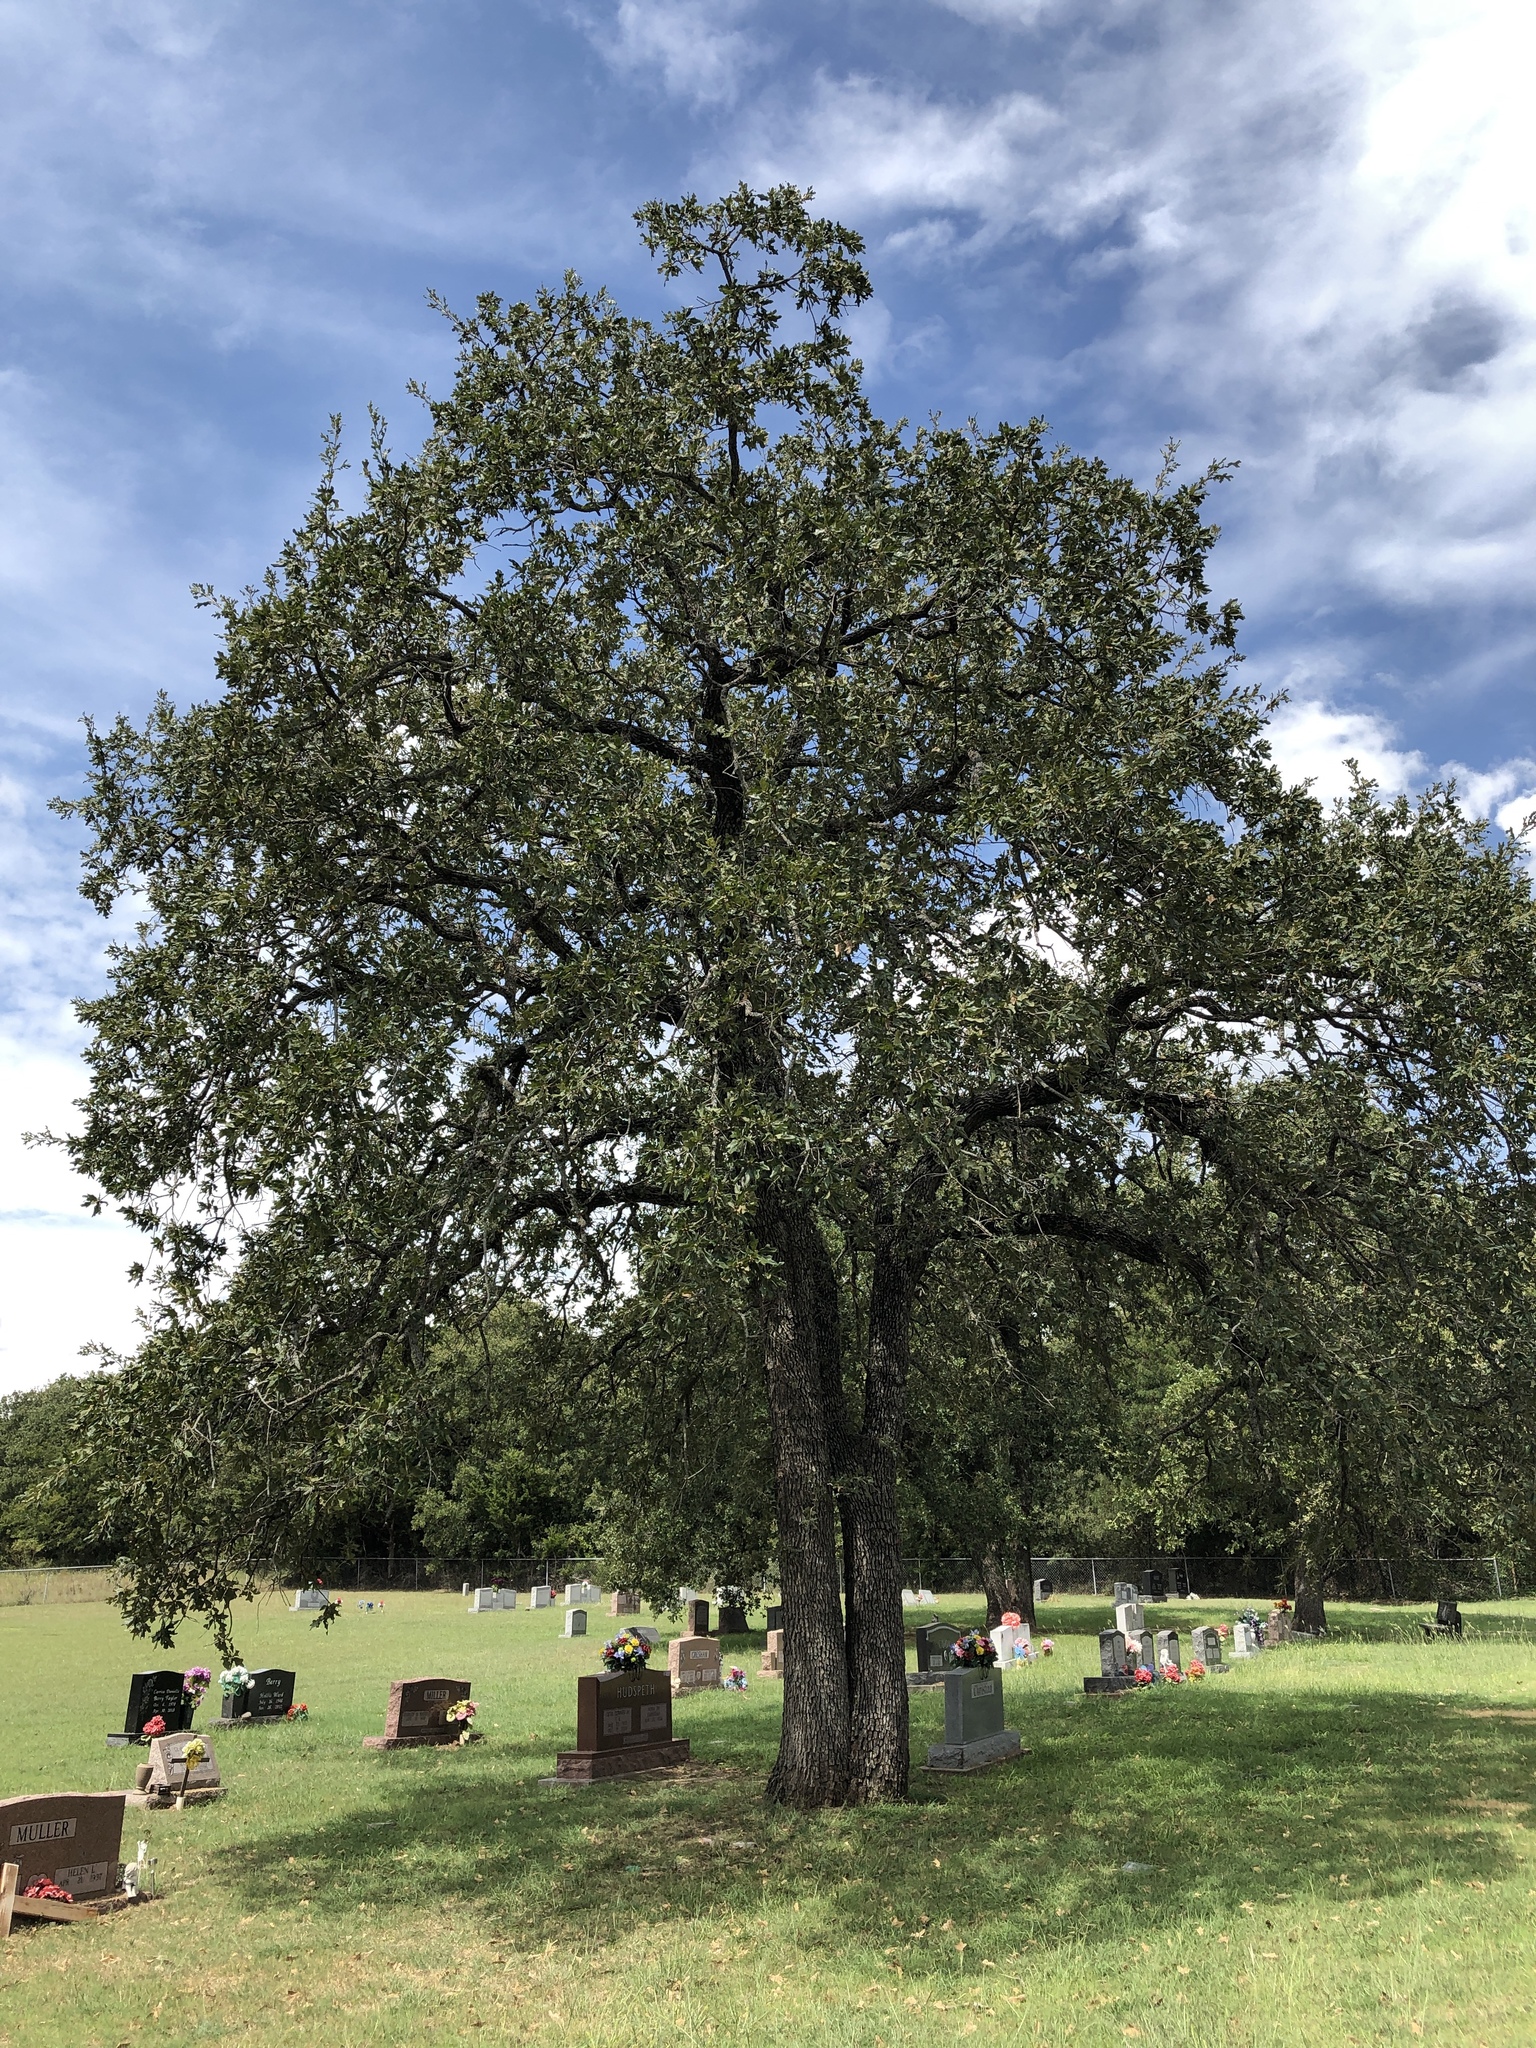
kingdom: Plantae
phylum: Tracheophyta
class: Magnoliopsida
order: Fagales
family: Fagaceae
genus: Quercus
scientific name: Quercus stellata
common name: Post oak
